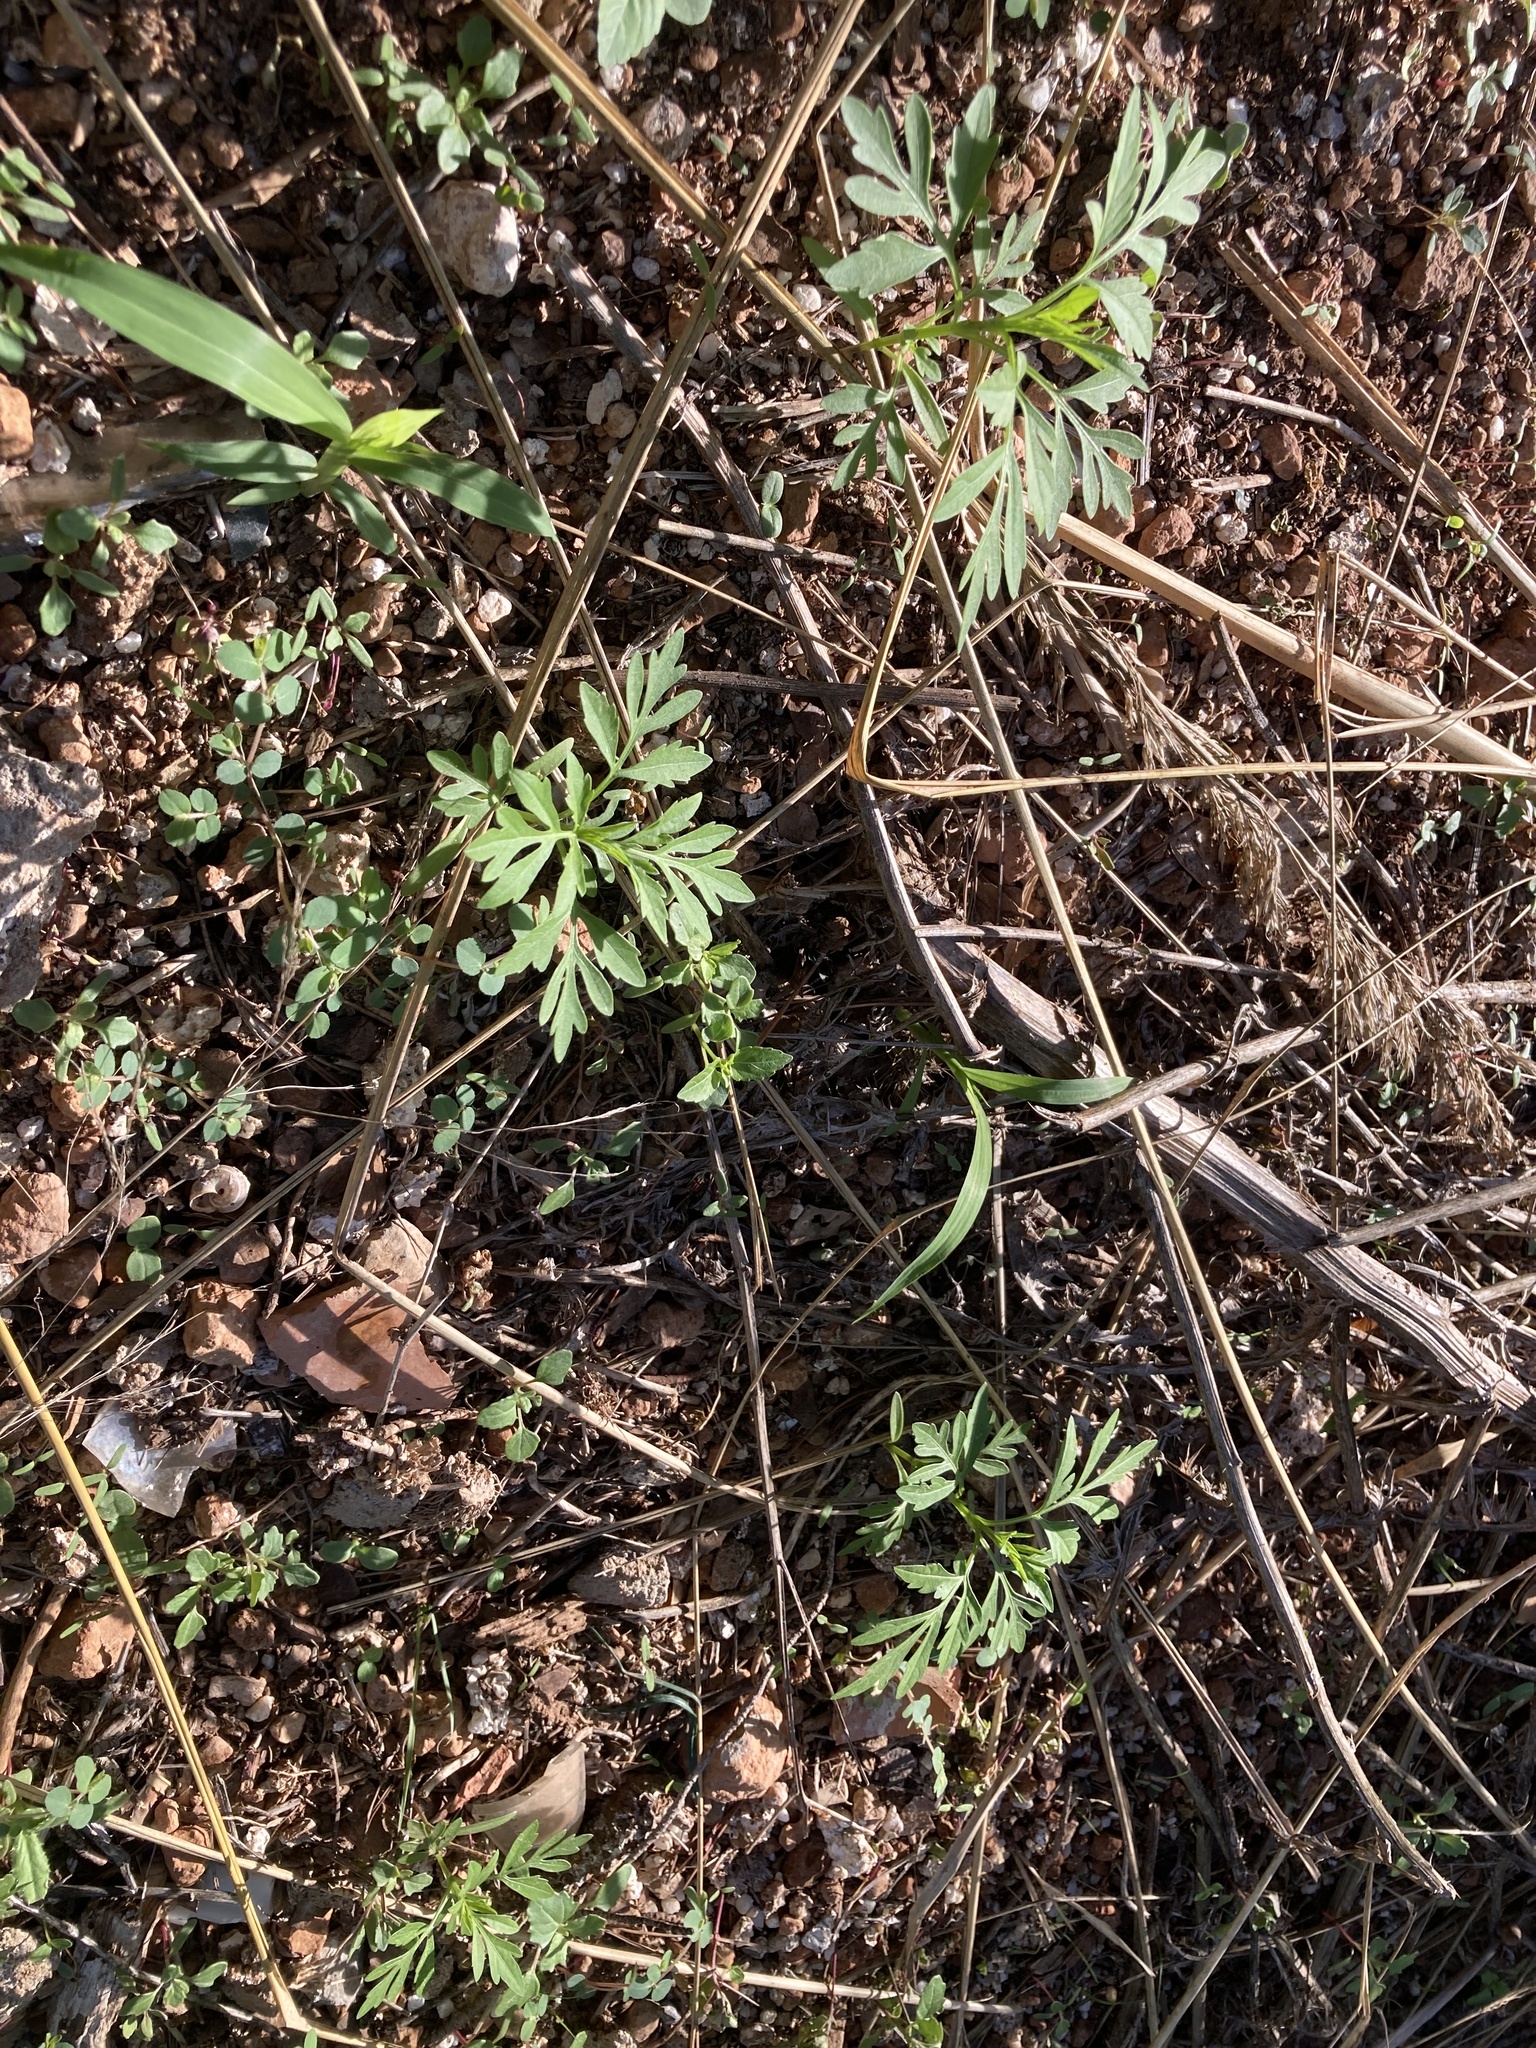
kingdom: Plantae
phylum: Tracheophyta
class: Magnoliopsida
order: Asterales
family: Asteraceae
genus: Bidens
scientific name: Bidens subalternans
